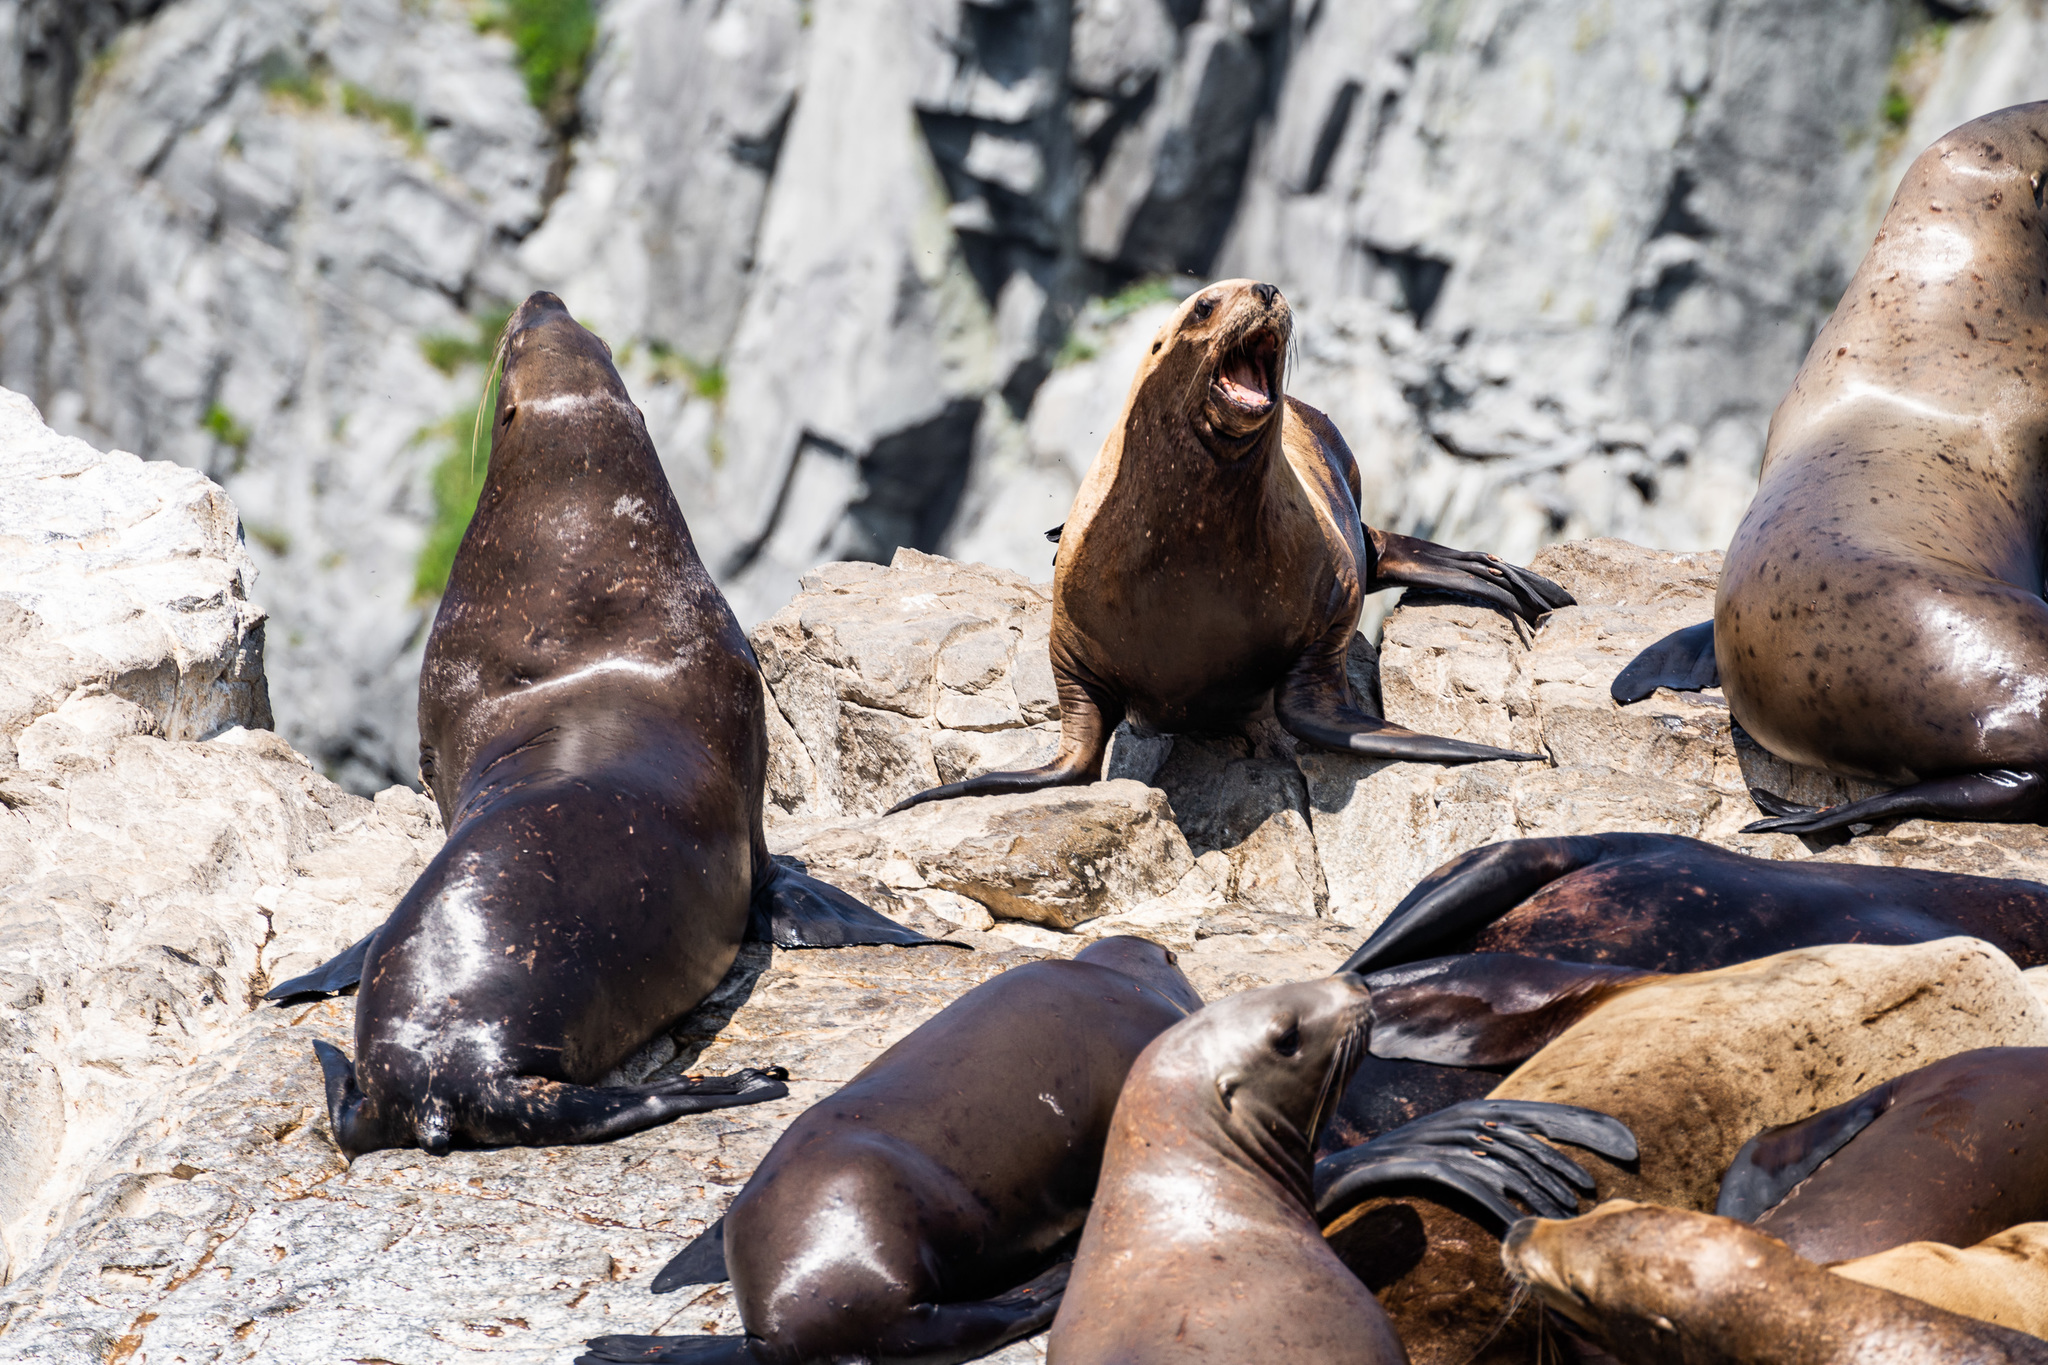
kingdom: Animalia
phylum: Chordata
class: Mammalia
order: Carnivora
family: Otariidae
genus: Eumetopias
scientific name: Eumetopias jubatus
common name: Steller sea lion
